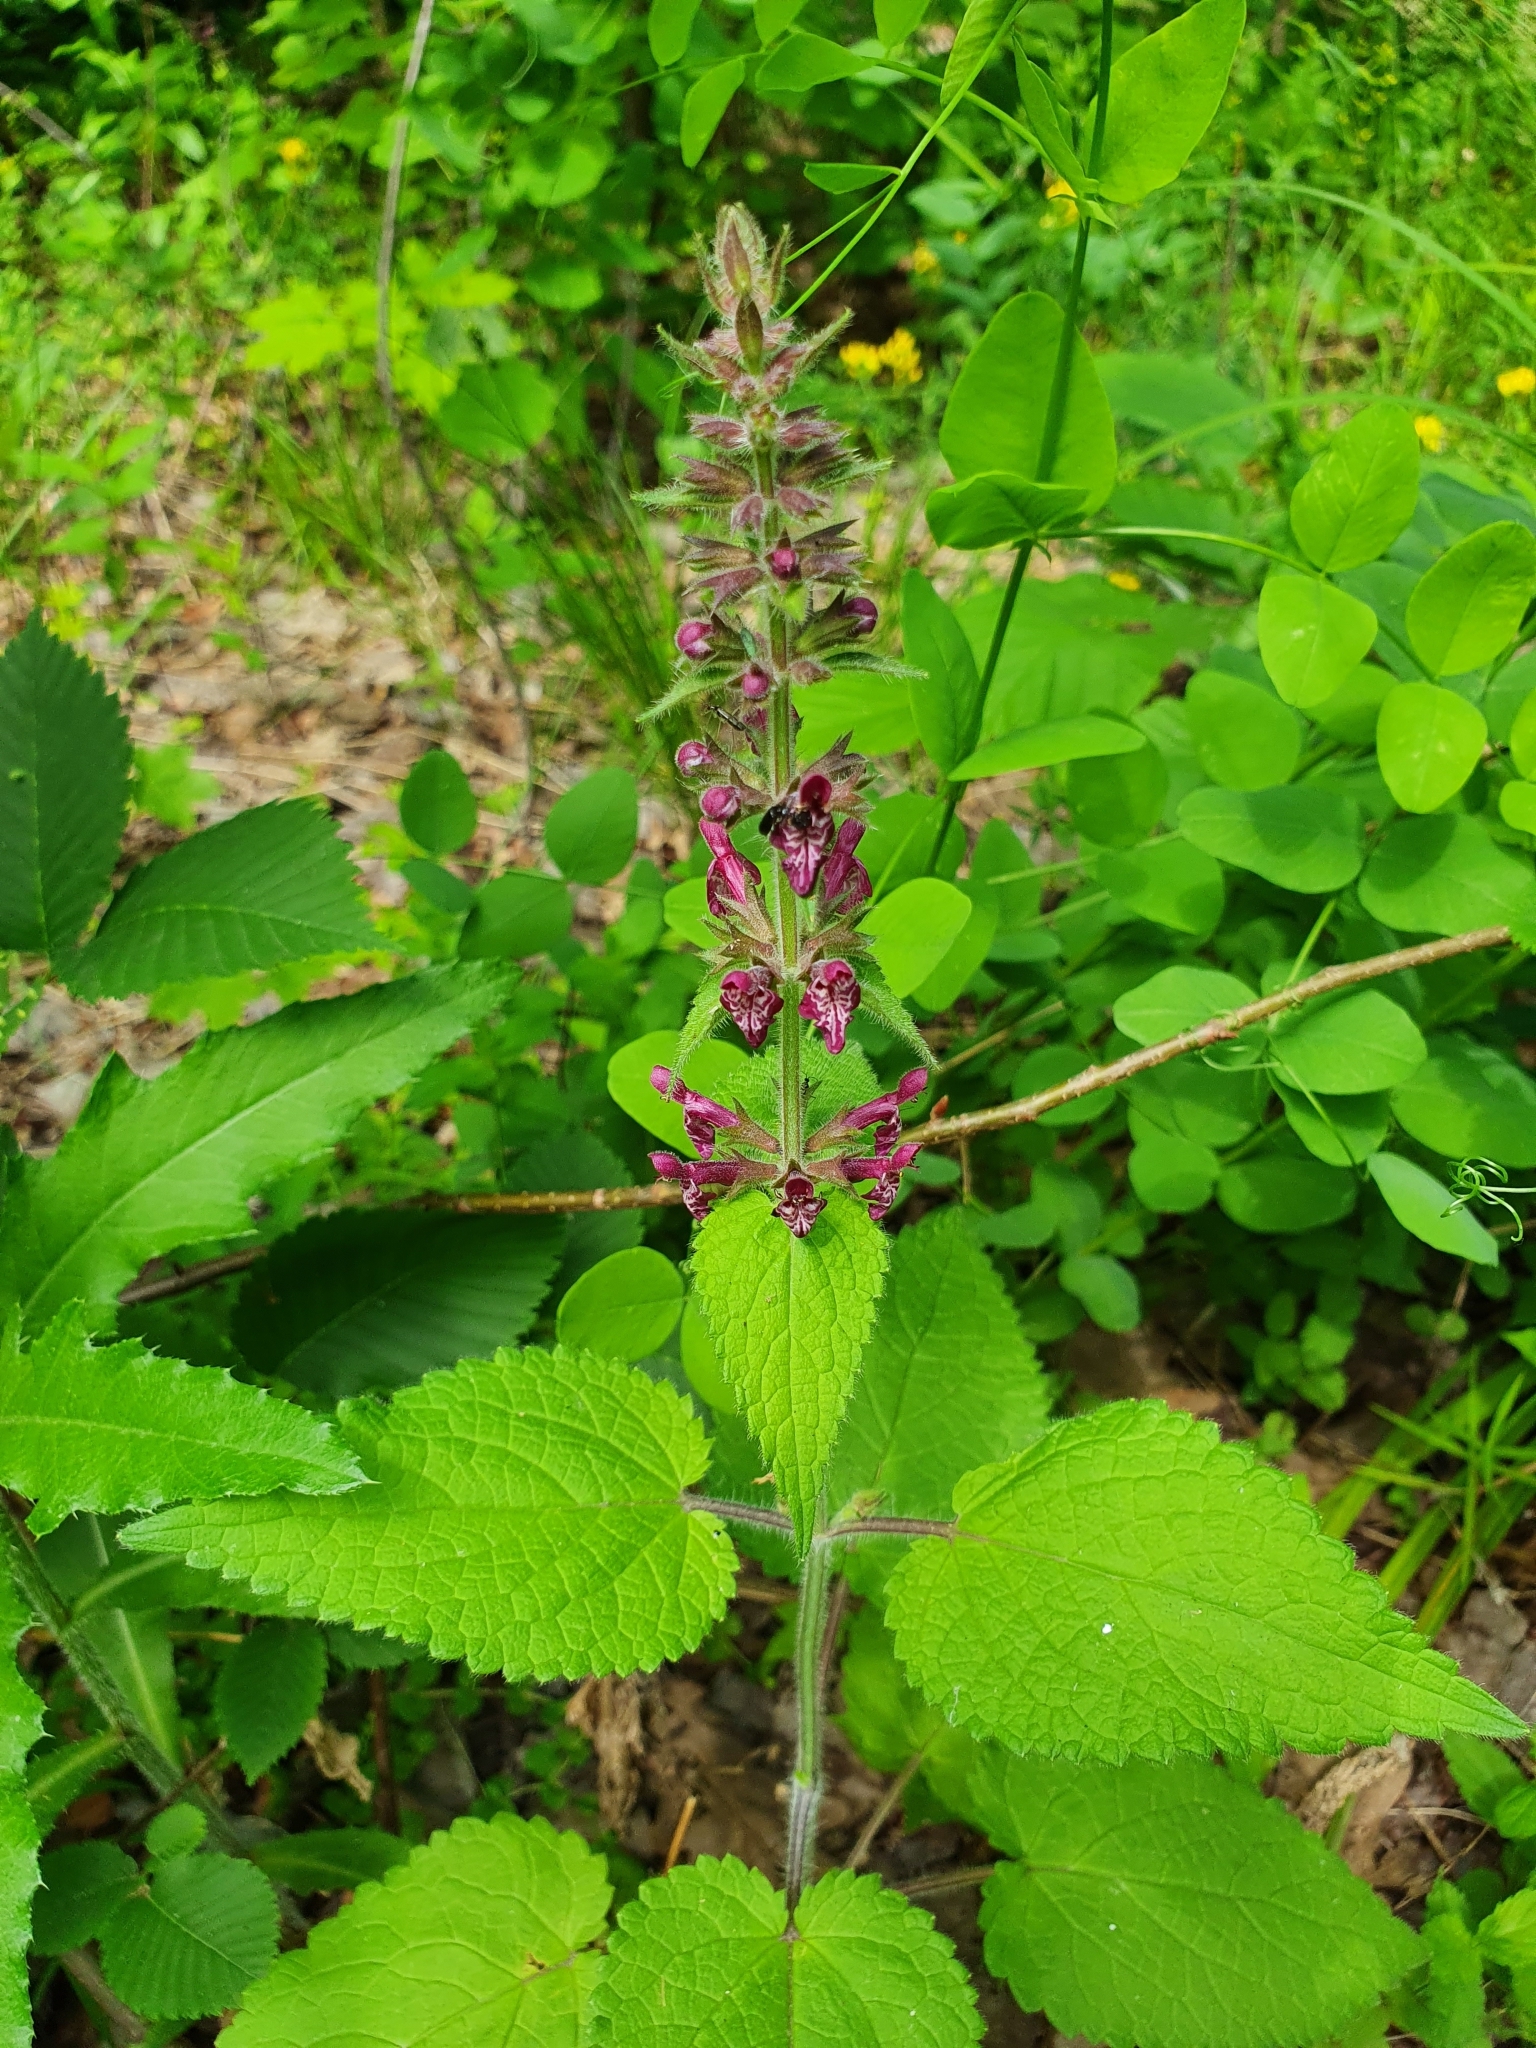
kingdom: Plantae
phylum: Tracheophyta
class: Magnoliopsida
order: Lamiales
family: Lamiaceae
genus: Stachys
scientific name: Stachys sylvatica
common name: Hedge woundwort
